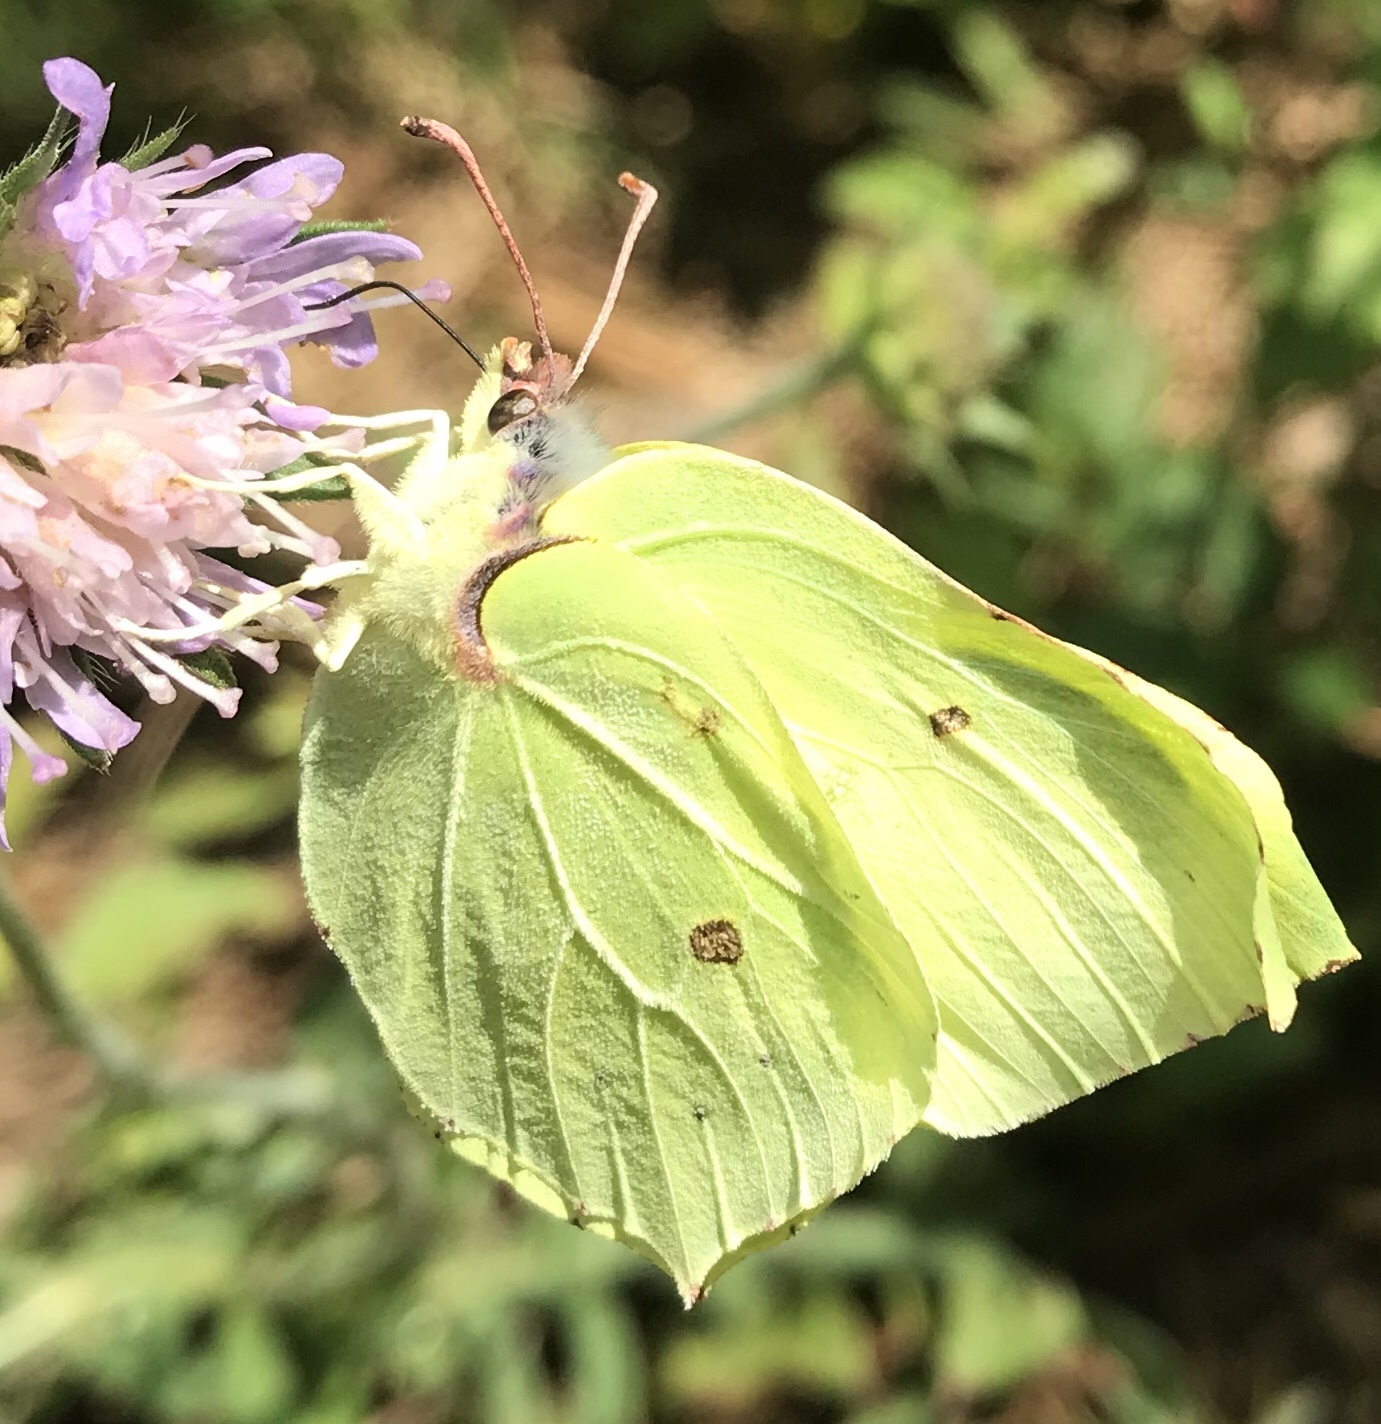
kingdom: Animalia
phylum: Arthropoda
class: Insecta
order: Lepidoptera
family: Pieridae
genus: Gonepteryx
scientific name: Gonepteryx rhamni
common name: Brimstone
